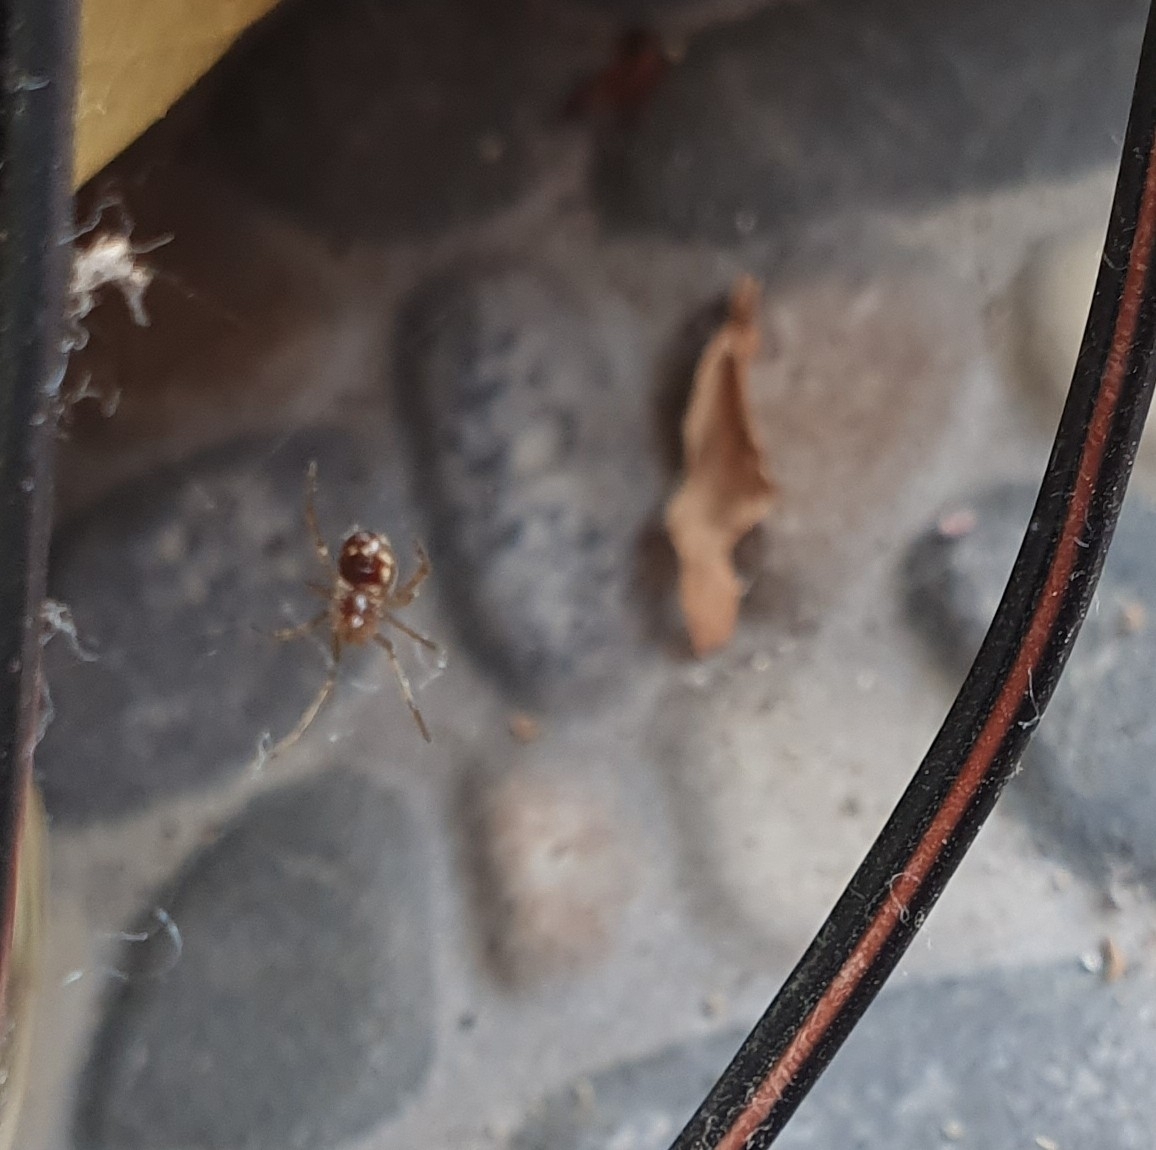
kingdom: Animalia
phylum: Arthropoda
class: Arachnida
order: Araneae
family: Theridiidae
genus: Steatoda
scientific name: Steatoda triangulosa
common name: Triangulate bud spider
